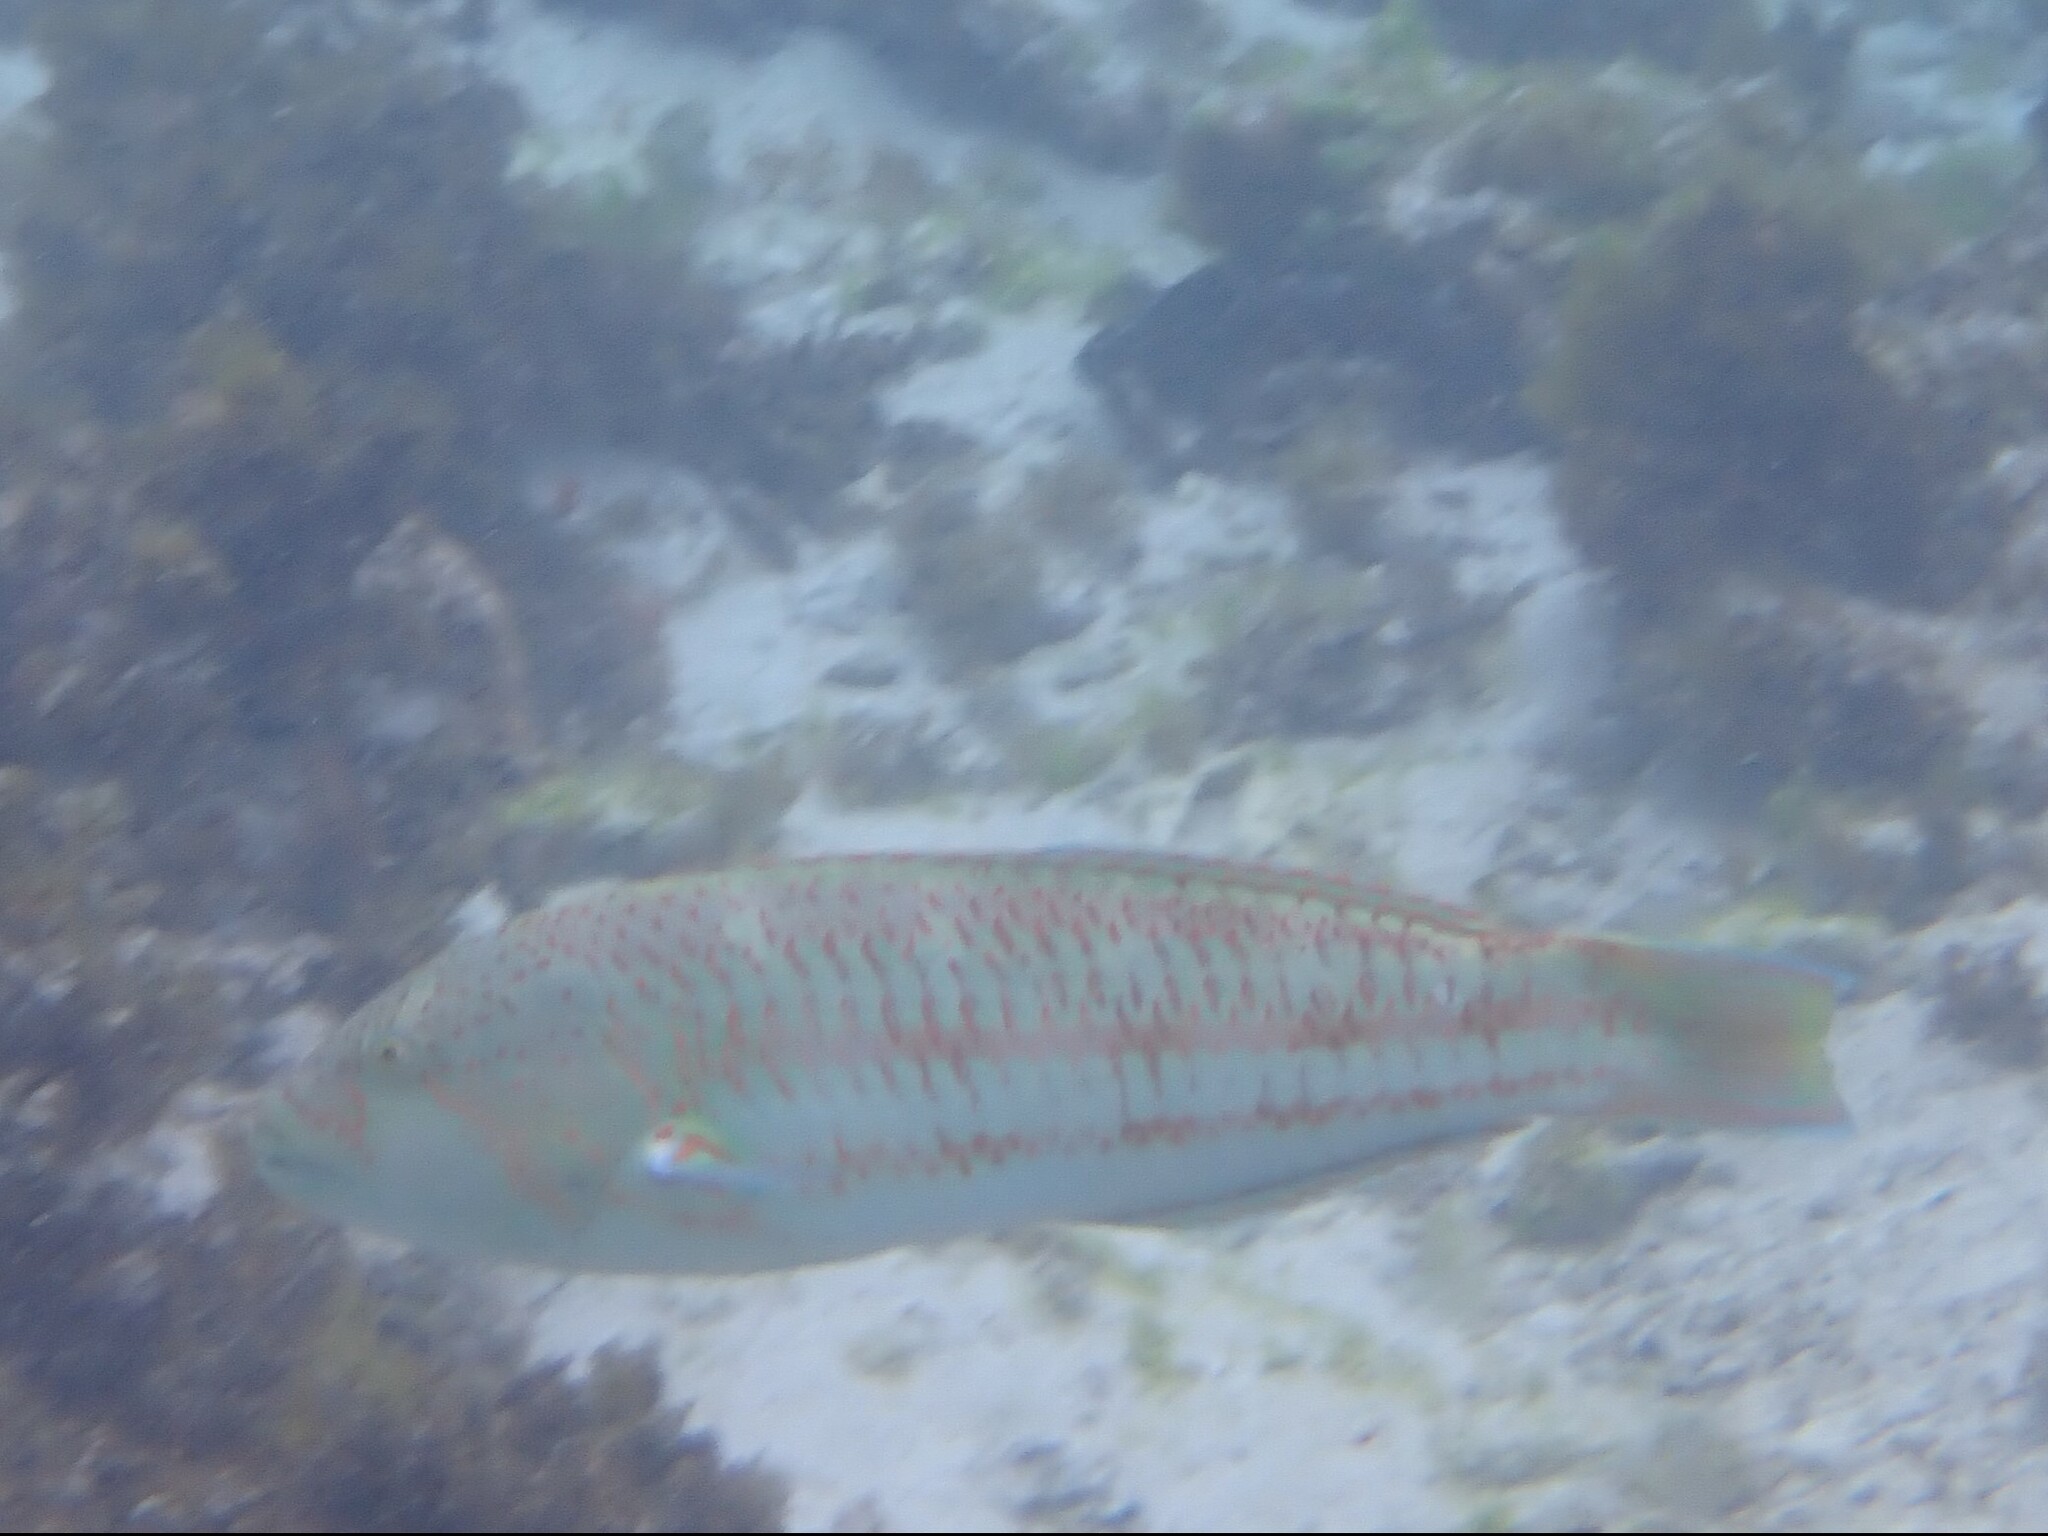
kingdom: Animalia
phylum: Chordata
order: Perciformes
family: Labridae
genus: Thalassoma
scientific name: Thalassoma purpureum
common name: Parrotfish
